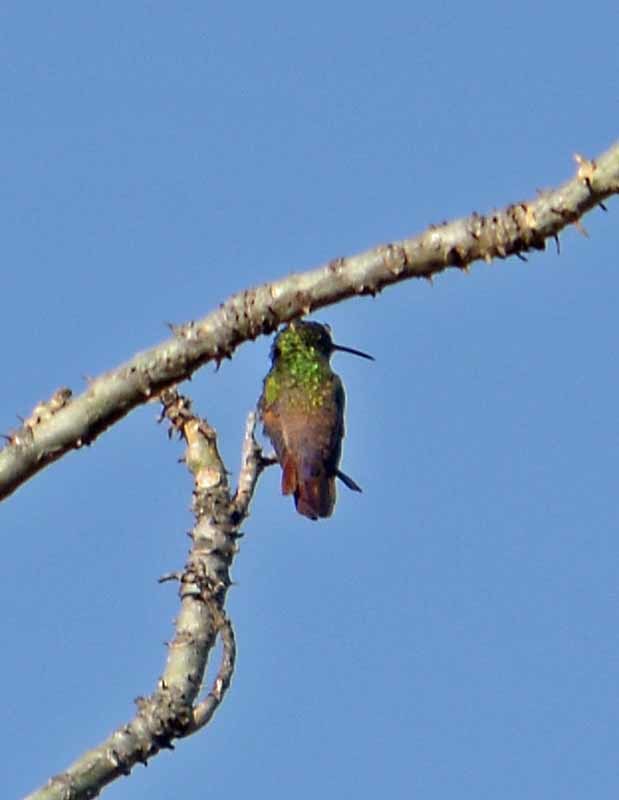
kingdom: Animalia
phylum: Chordata
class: Aves
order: Apodiformes
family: Trochilidae
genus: Saucerottia
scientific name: Saucerottia beryllina
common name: Berylline hummingbird
